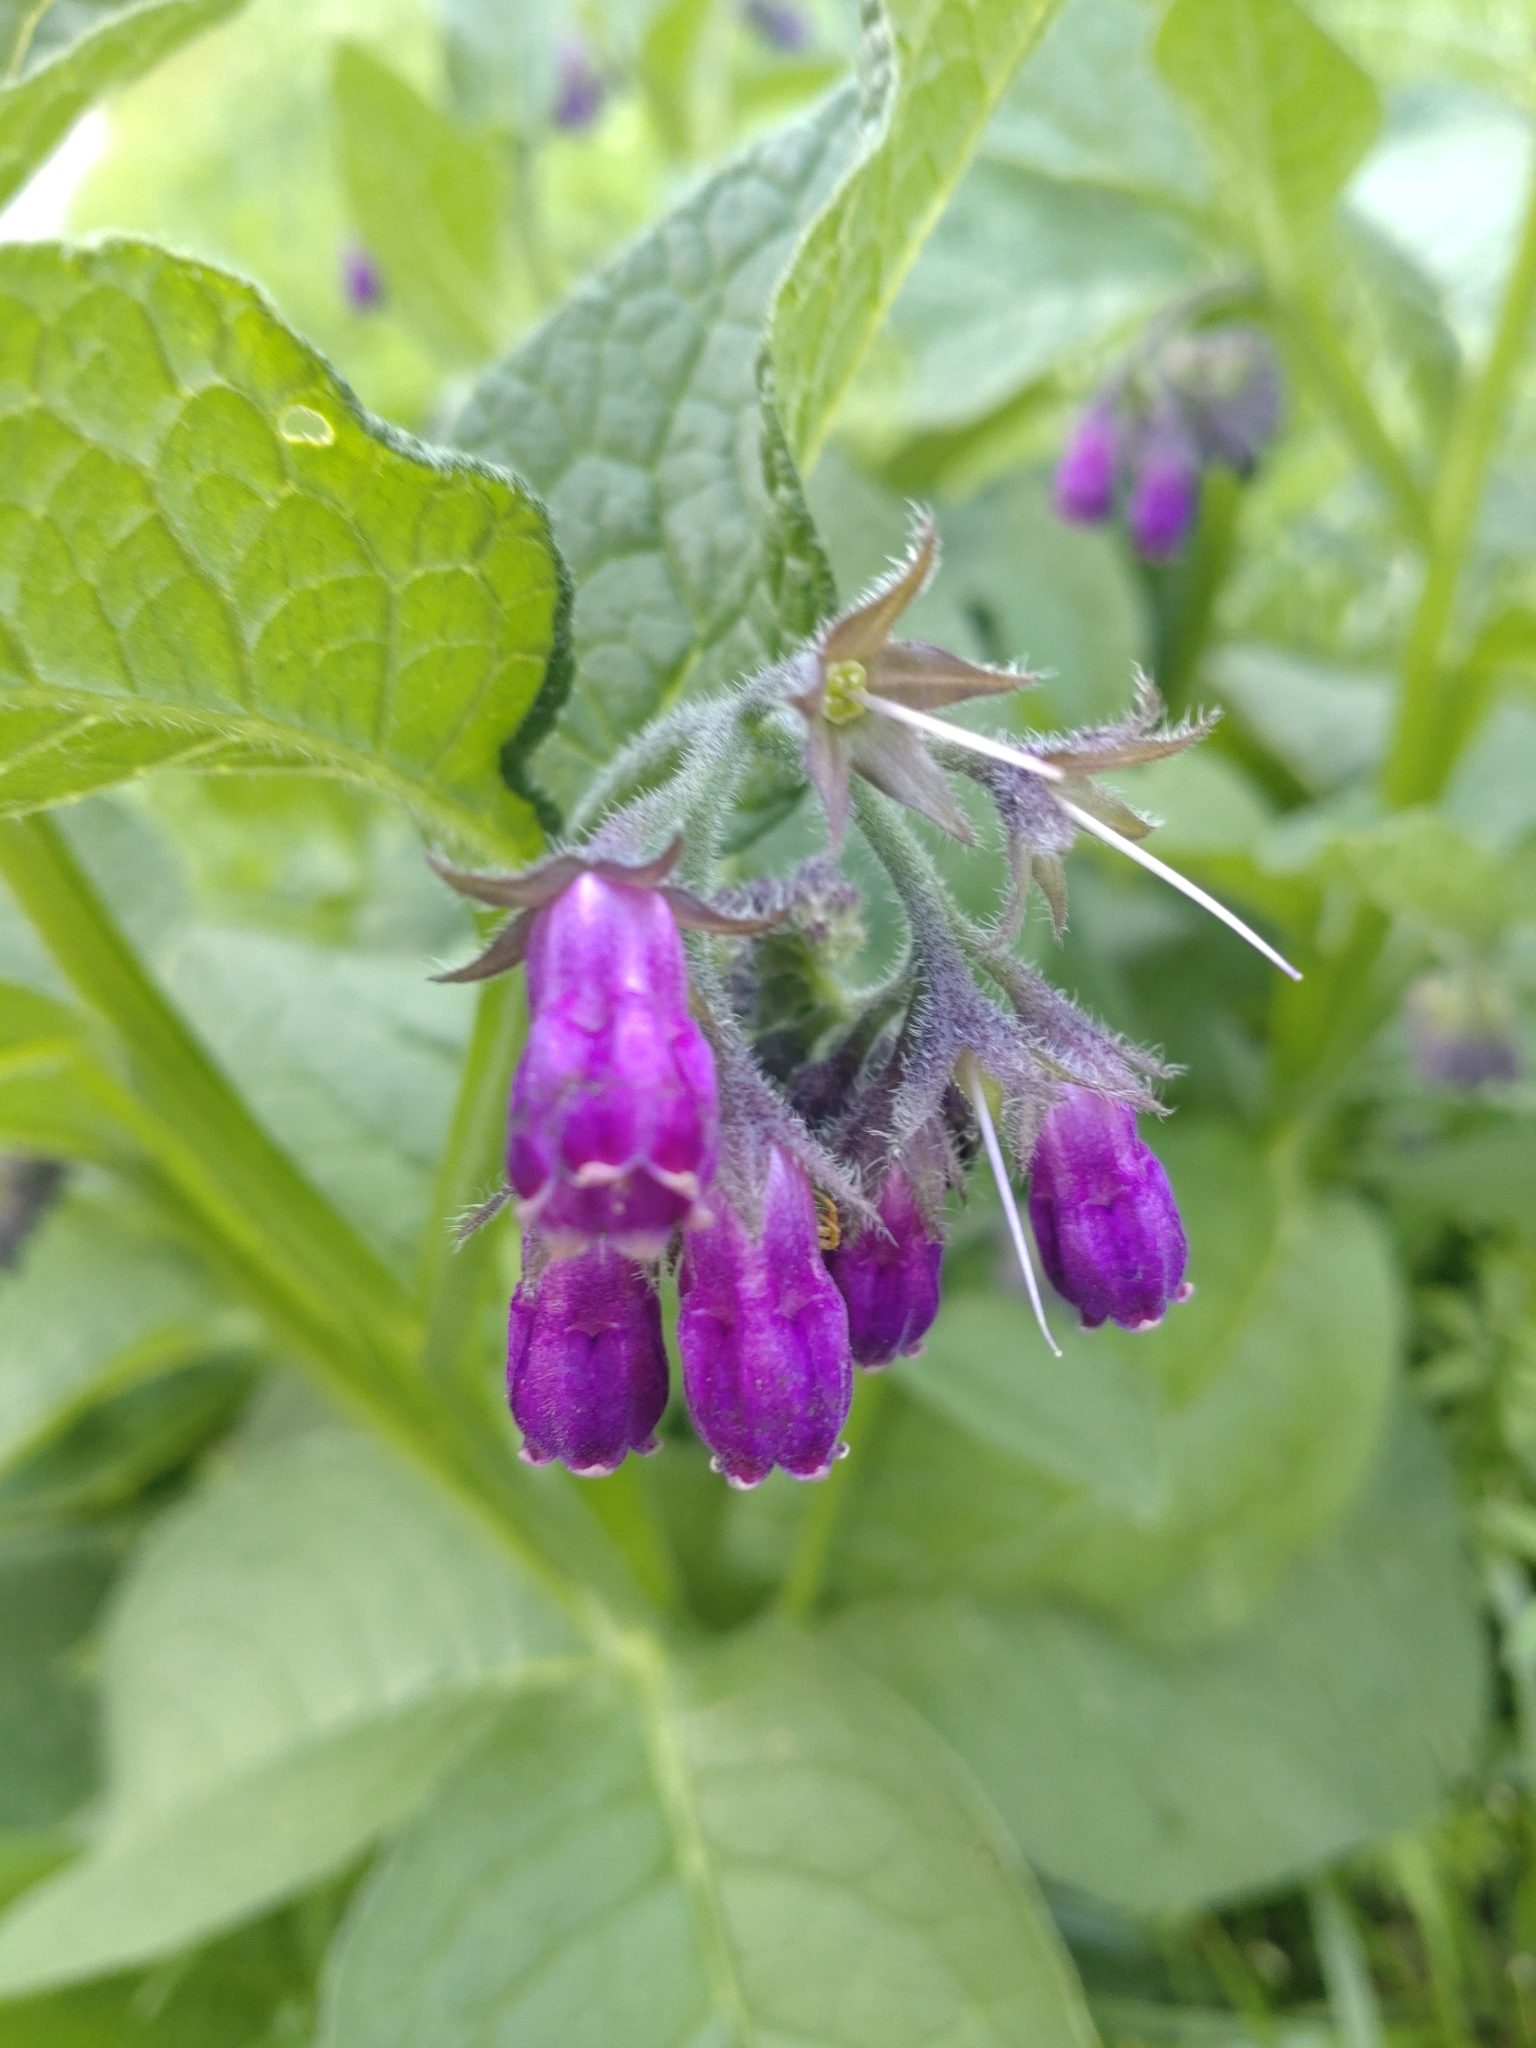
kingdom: Plantae
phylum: Tracheophyta
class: Magnoliopsida
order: Boraginales
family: Boraginaceae
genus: Symphytum
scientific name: Symphytum officinale
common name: Common comfrey
